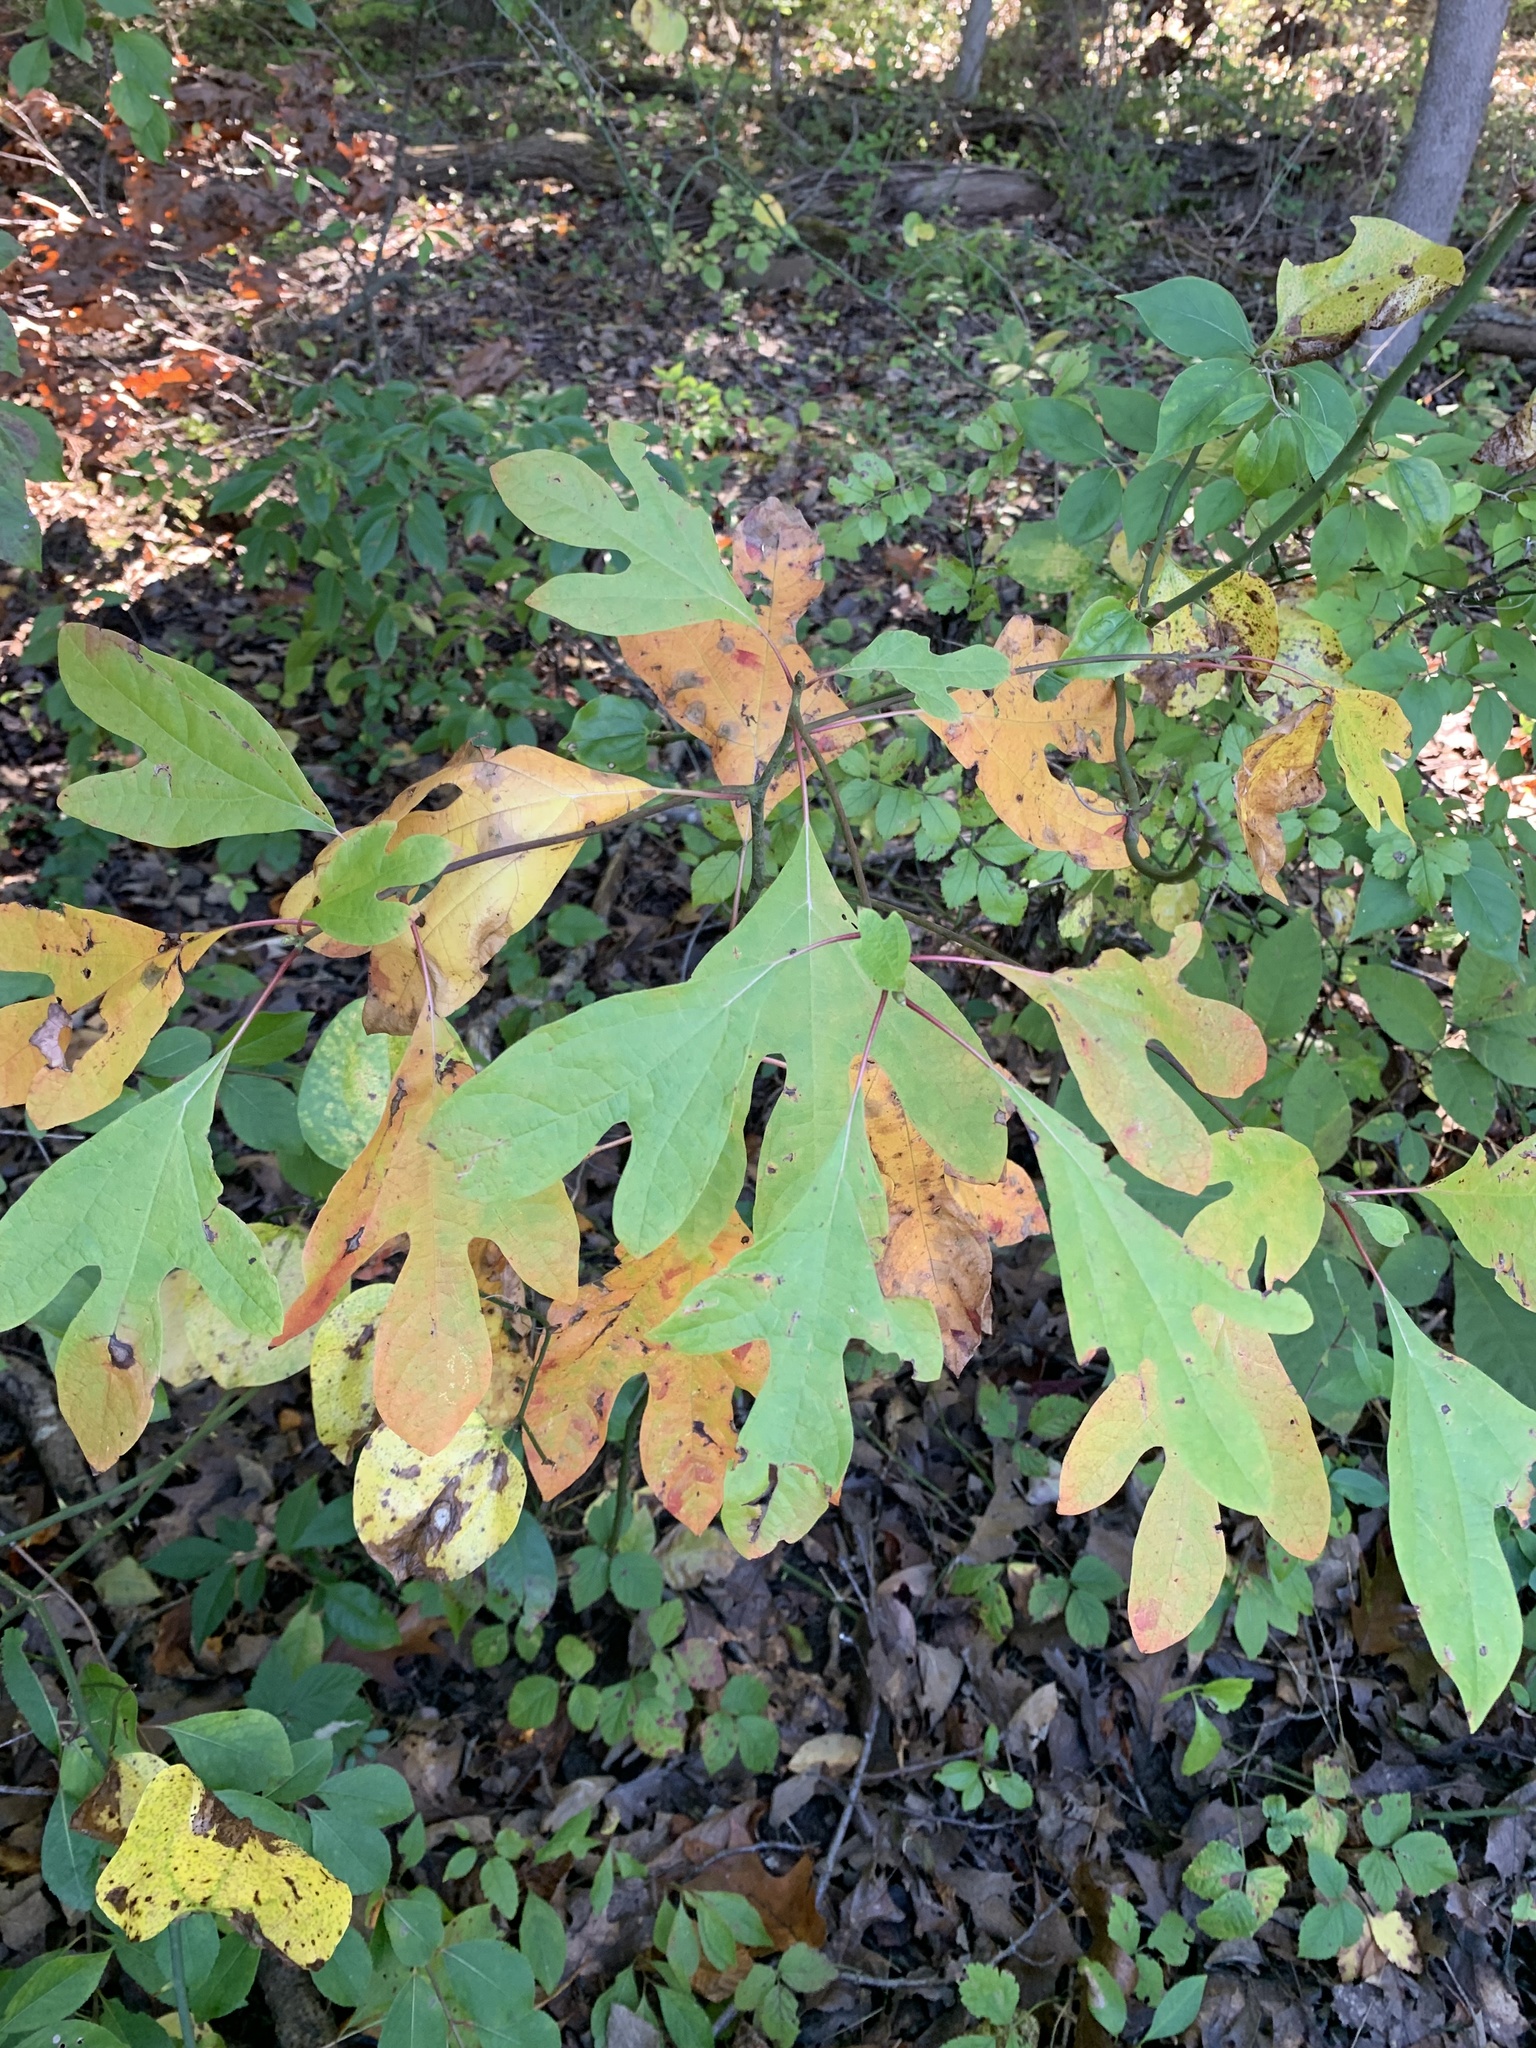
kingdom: Plantae
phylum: Tracheophyta
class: Magnoliopsida
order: Laurales
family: Lauraceae
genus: Sassafras
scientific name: Sassafras albidum
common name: Sassafras
